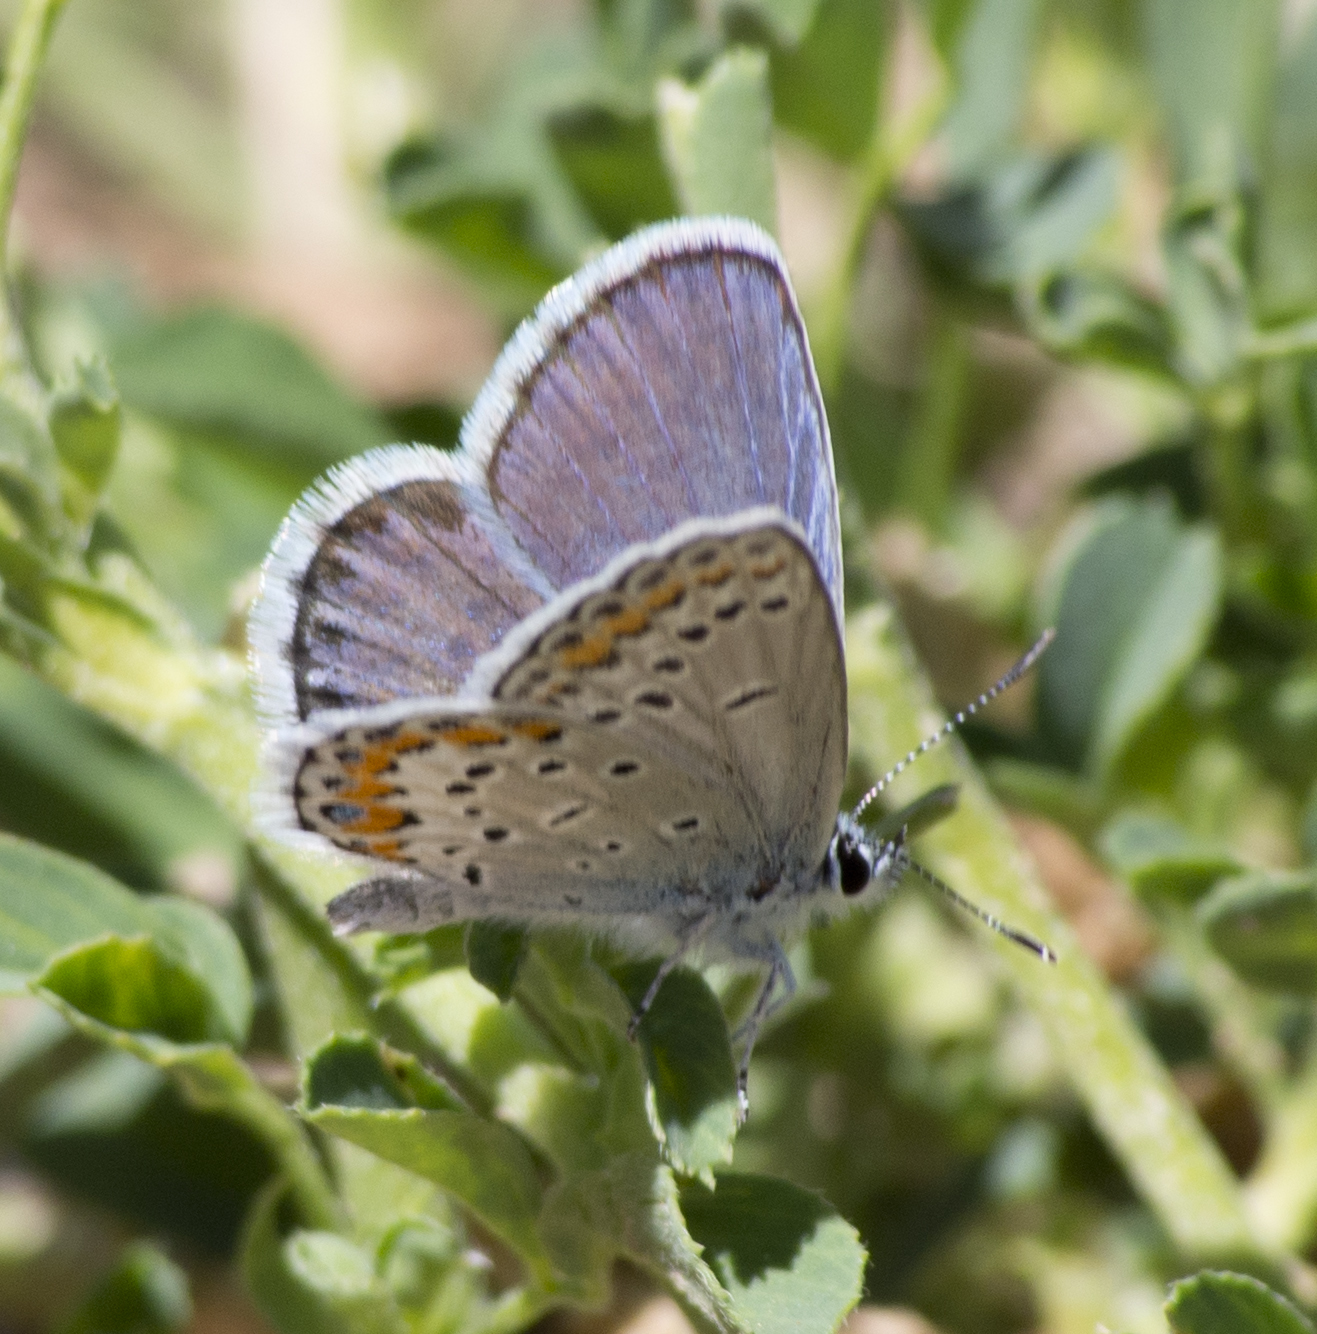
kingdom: Animalia
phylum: Arthropoda
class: Insecta
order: Lepidoptera
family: Lycaenidae
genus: Lycaeides
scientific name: Lycaeides melissa
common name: Melissa blue
